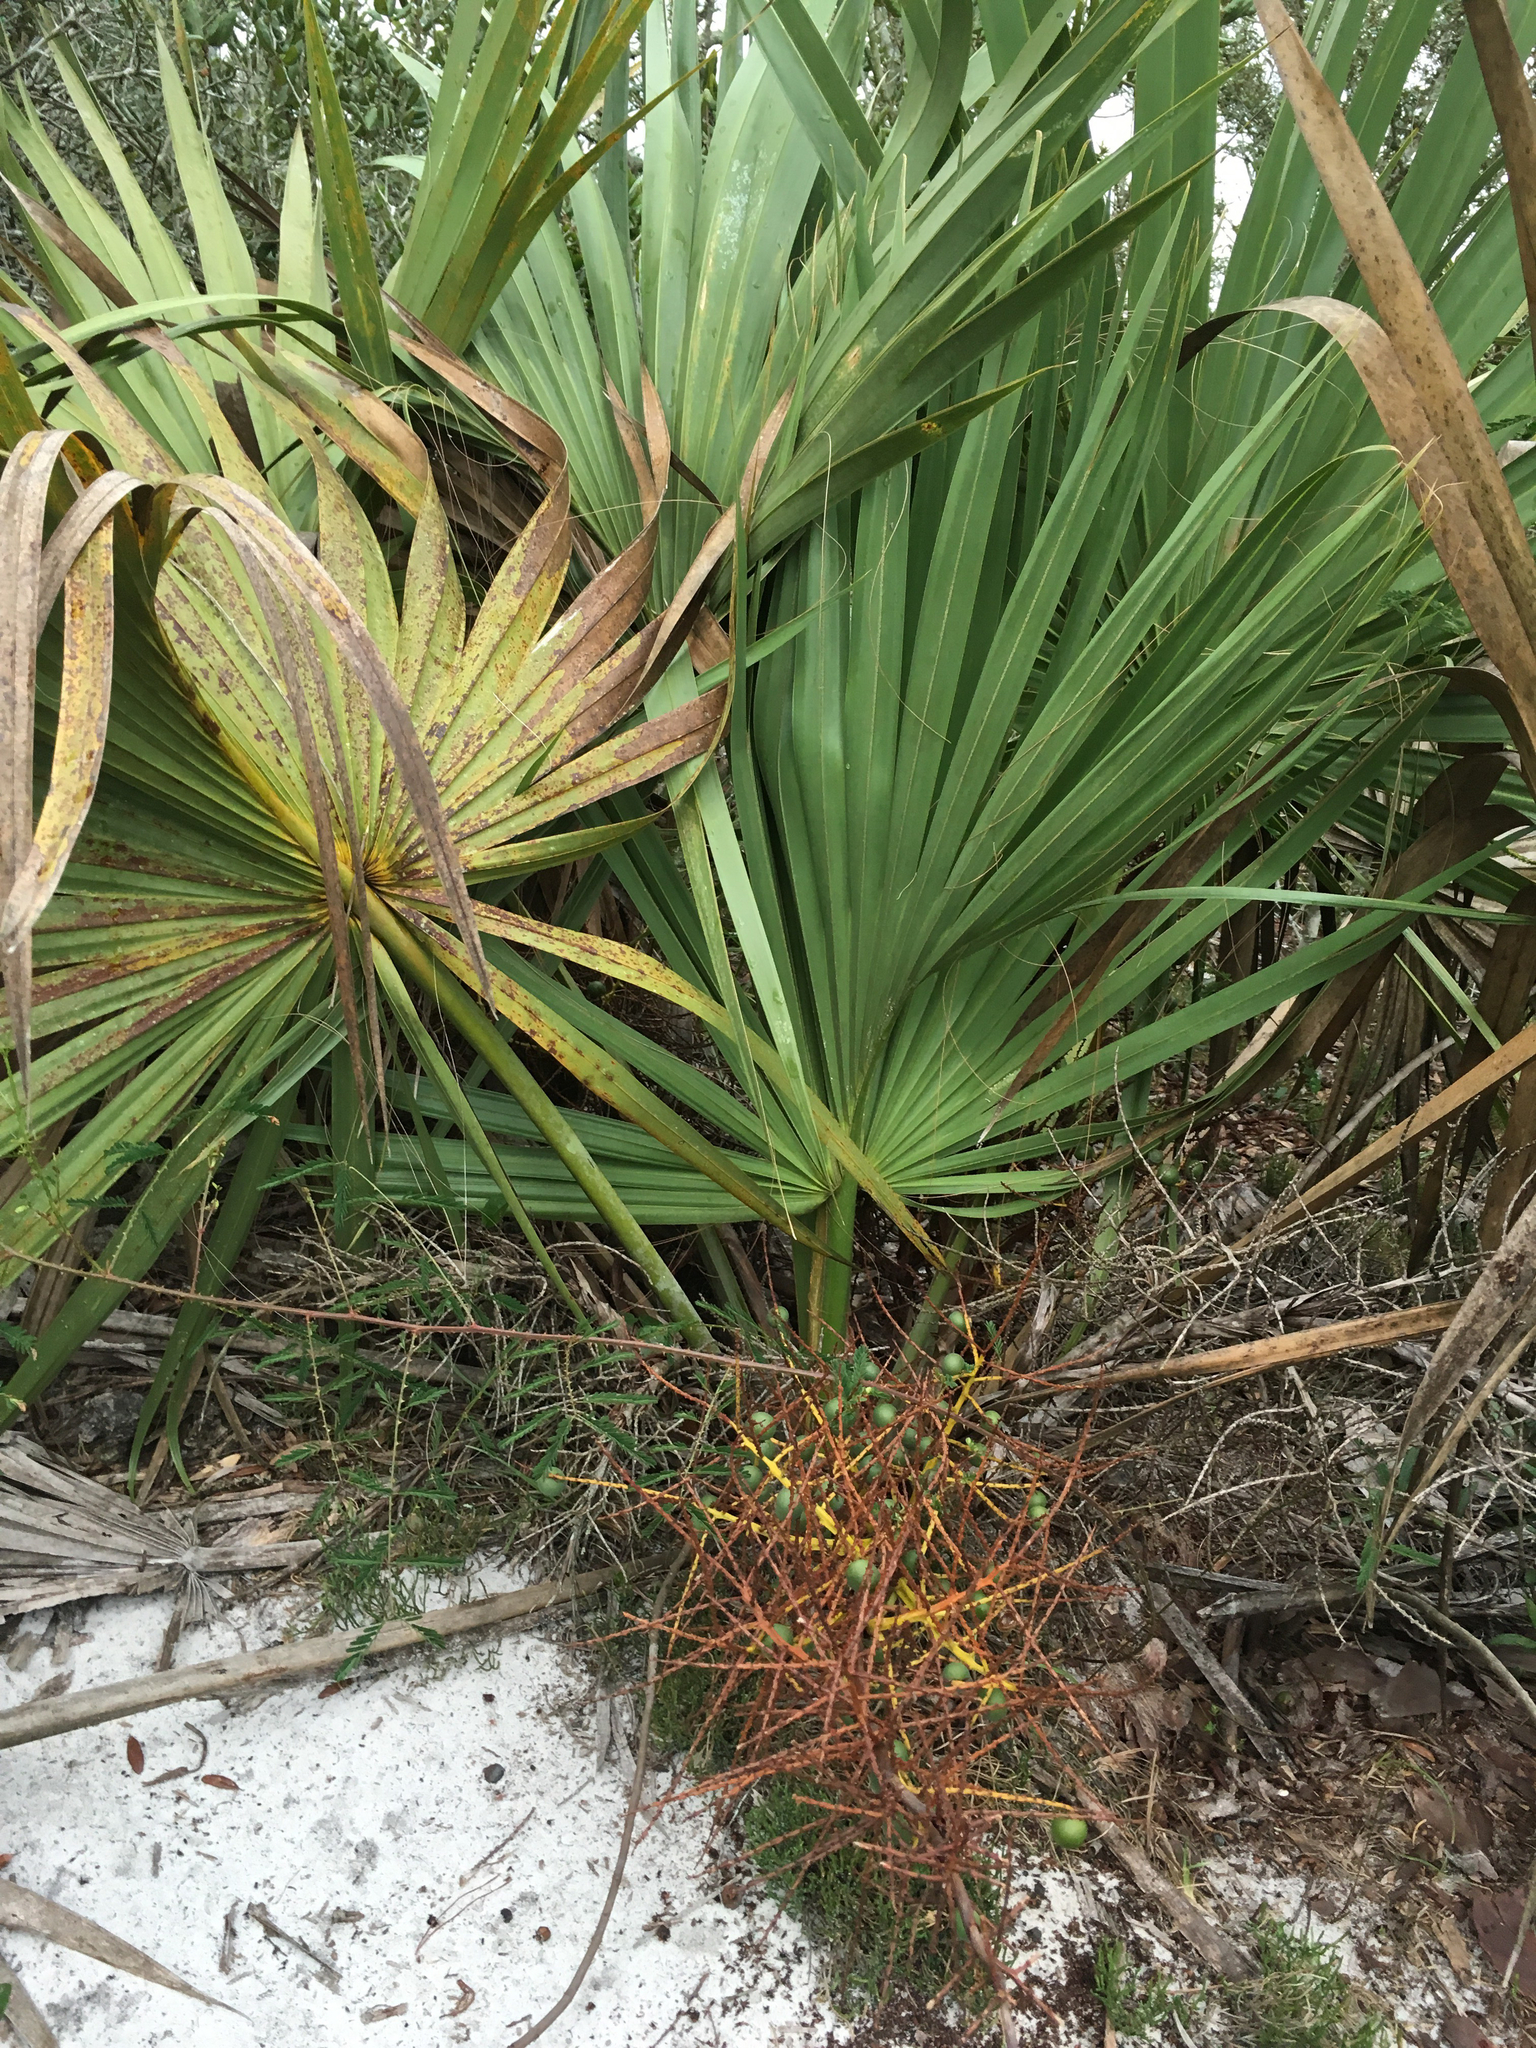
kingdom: Plantae
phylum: Tracheophyta
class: Liliopsida
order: Arecales
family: Arecaceae
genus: Sabal
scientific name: Sabal etonia
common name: Dwarf palmetto
